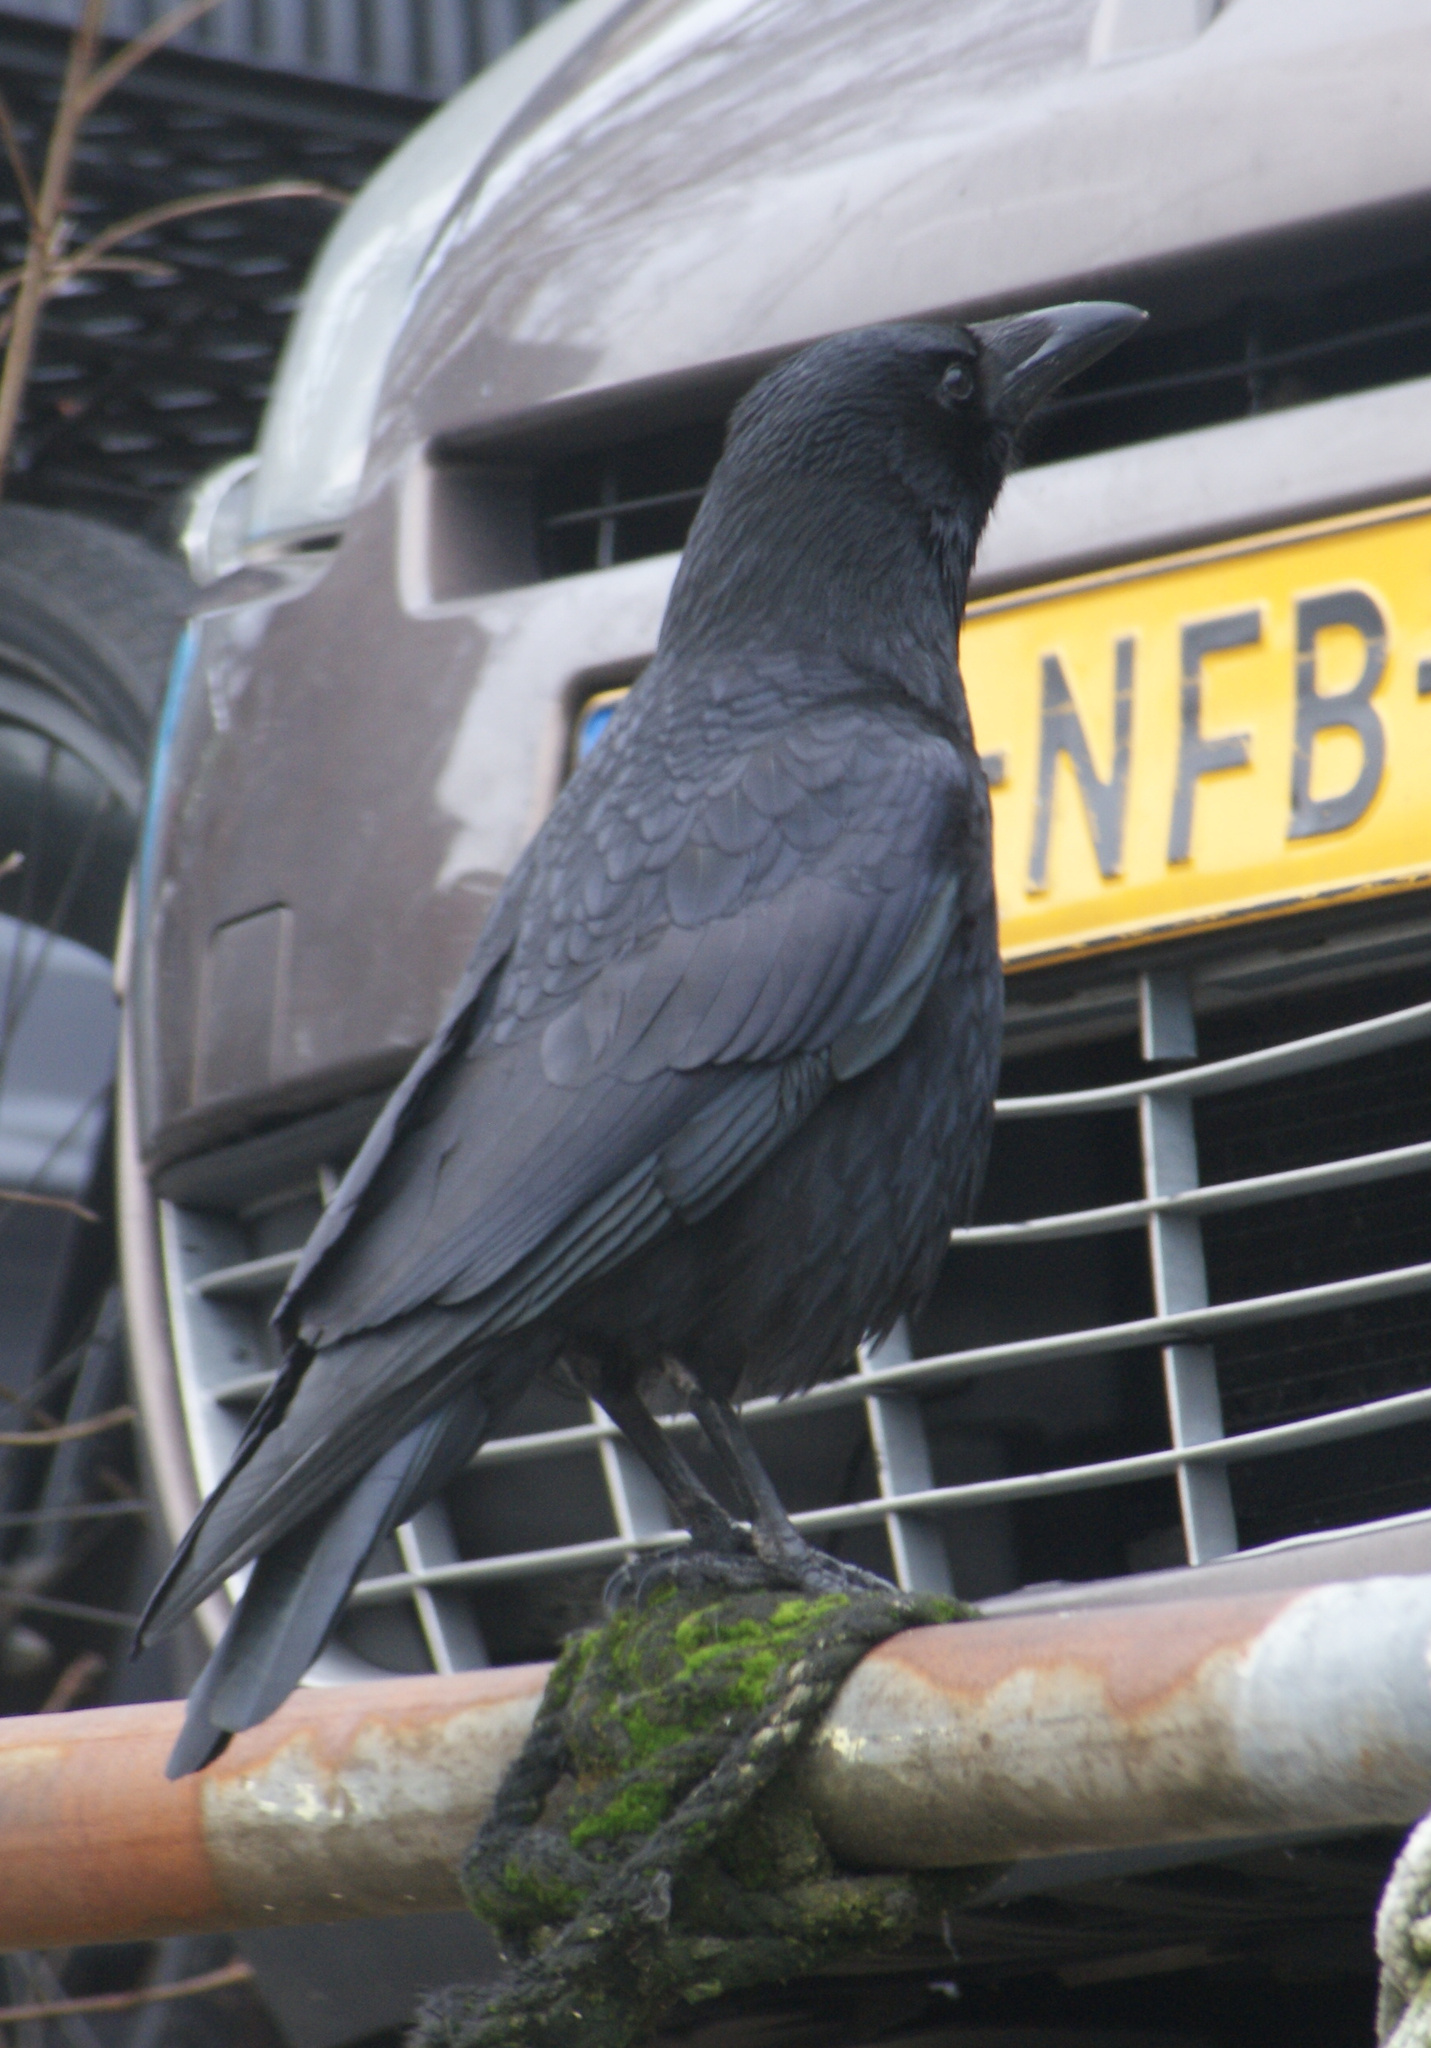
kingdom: Animalia
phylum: Chordata
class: Aves
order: Passeriformes
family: Corvidae
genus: Corvus
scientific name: Corvus corone
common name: Carrion crow
